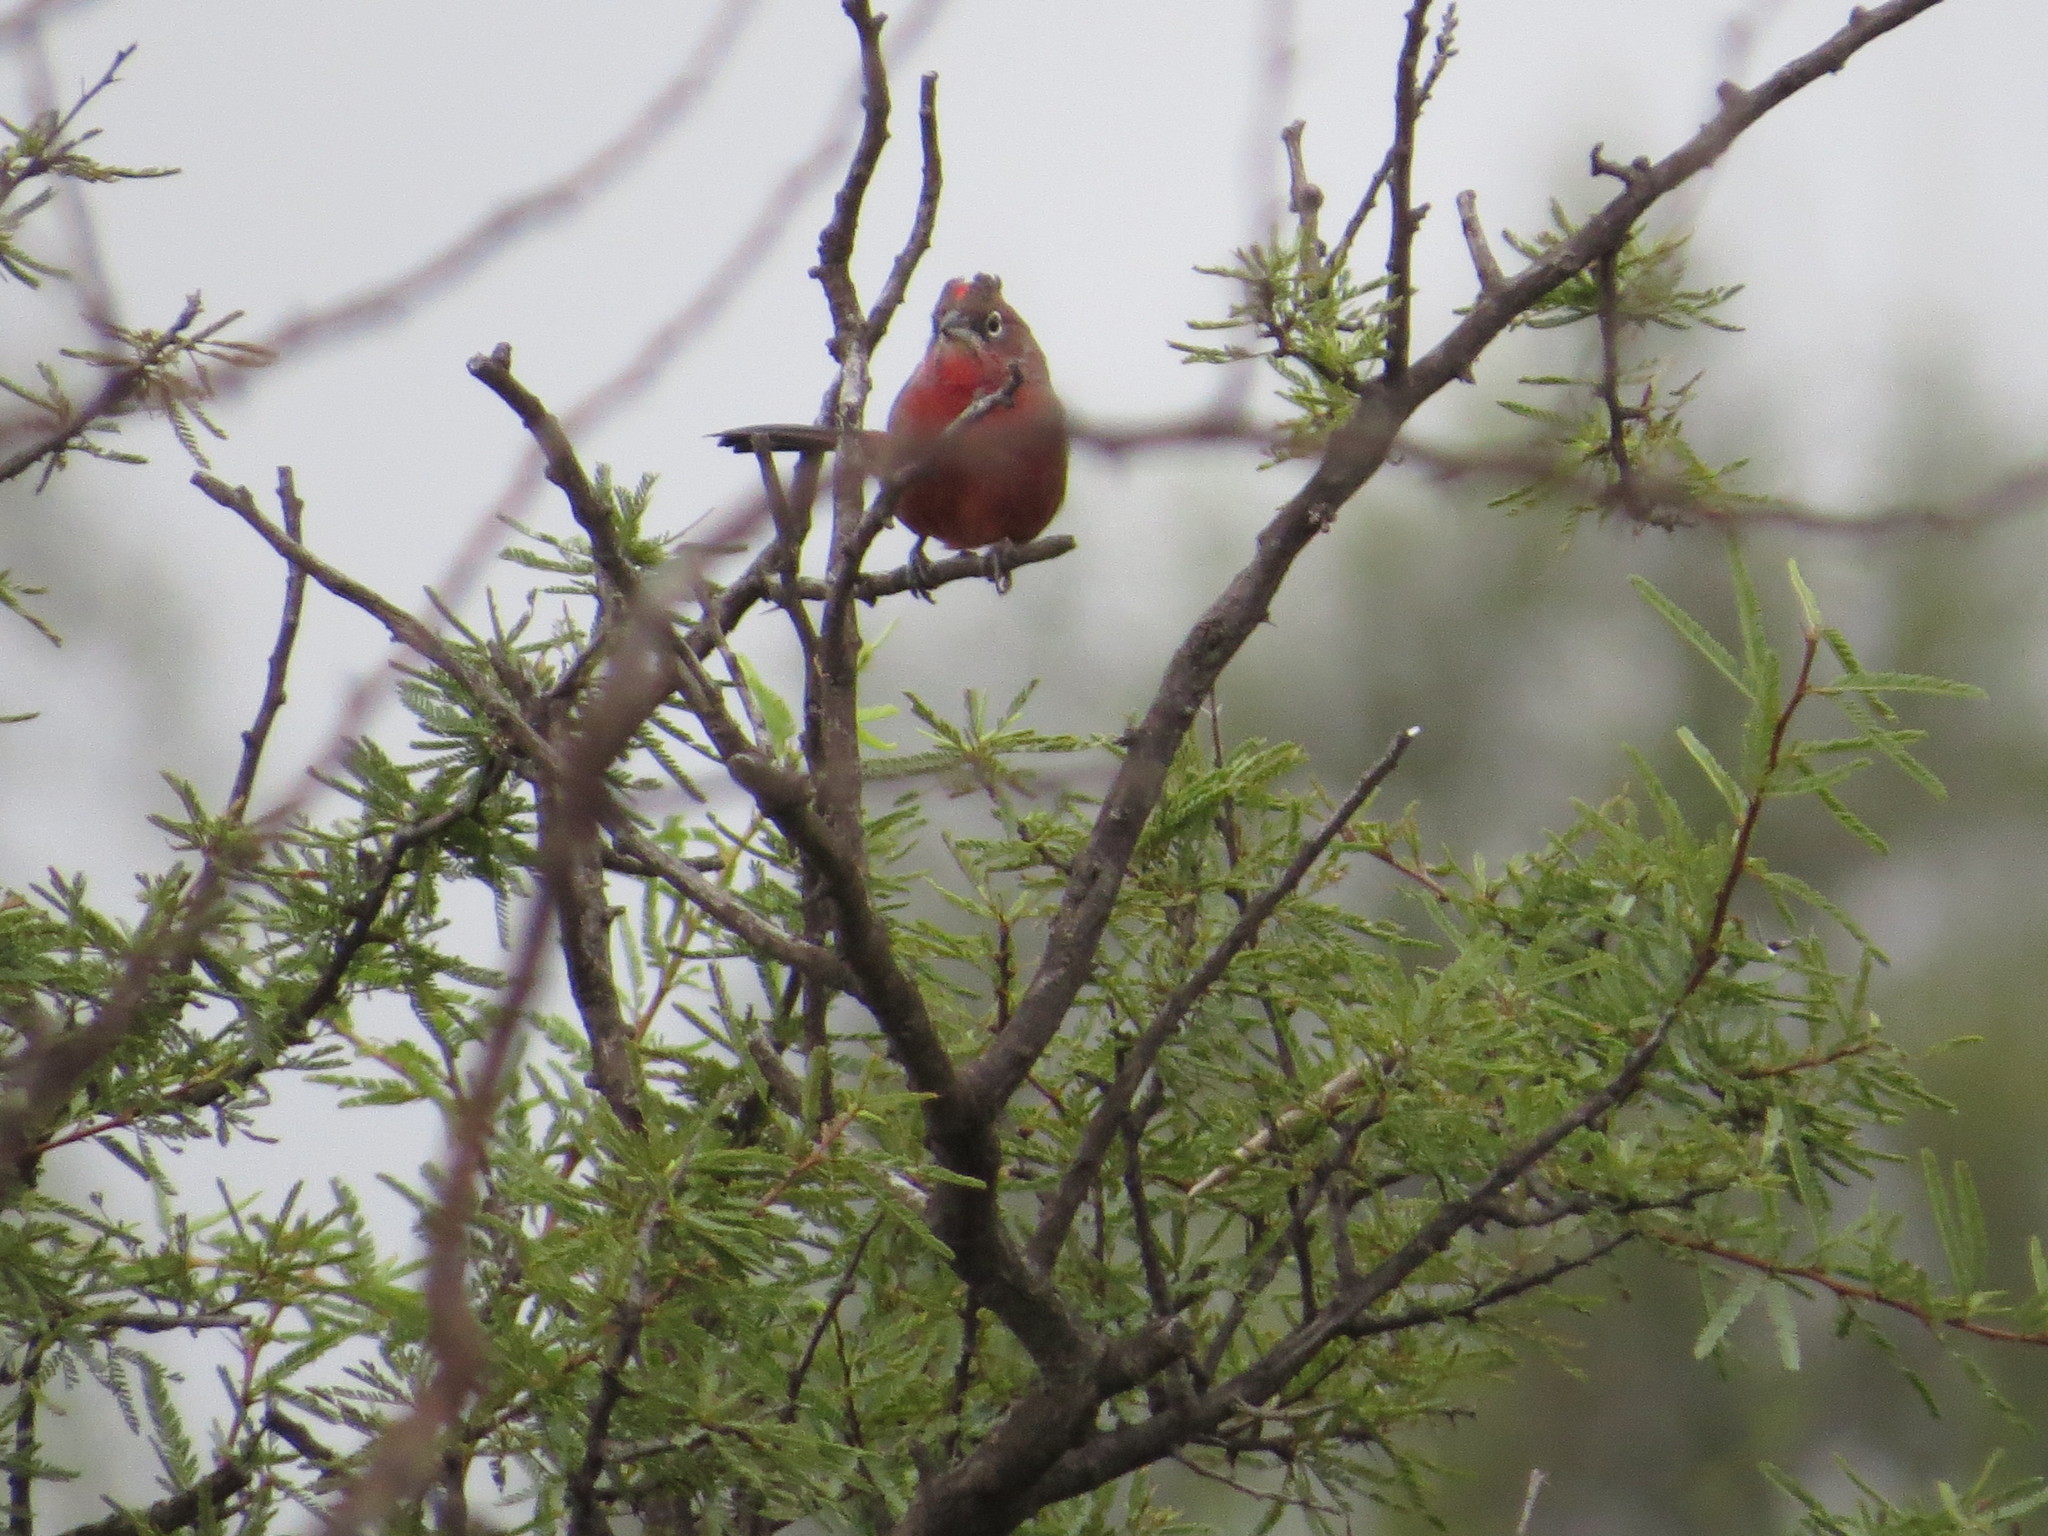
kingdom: Animalia
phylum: Chordata
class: Aves
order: Passeriformes
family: Thraupidae
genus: Coryphospingus
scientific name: Coryphospingus cucullatus
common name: Red pileated finch
